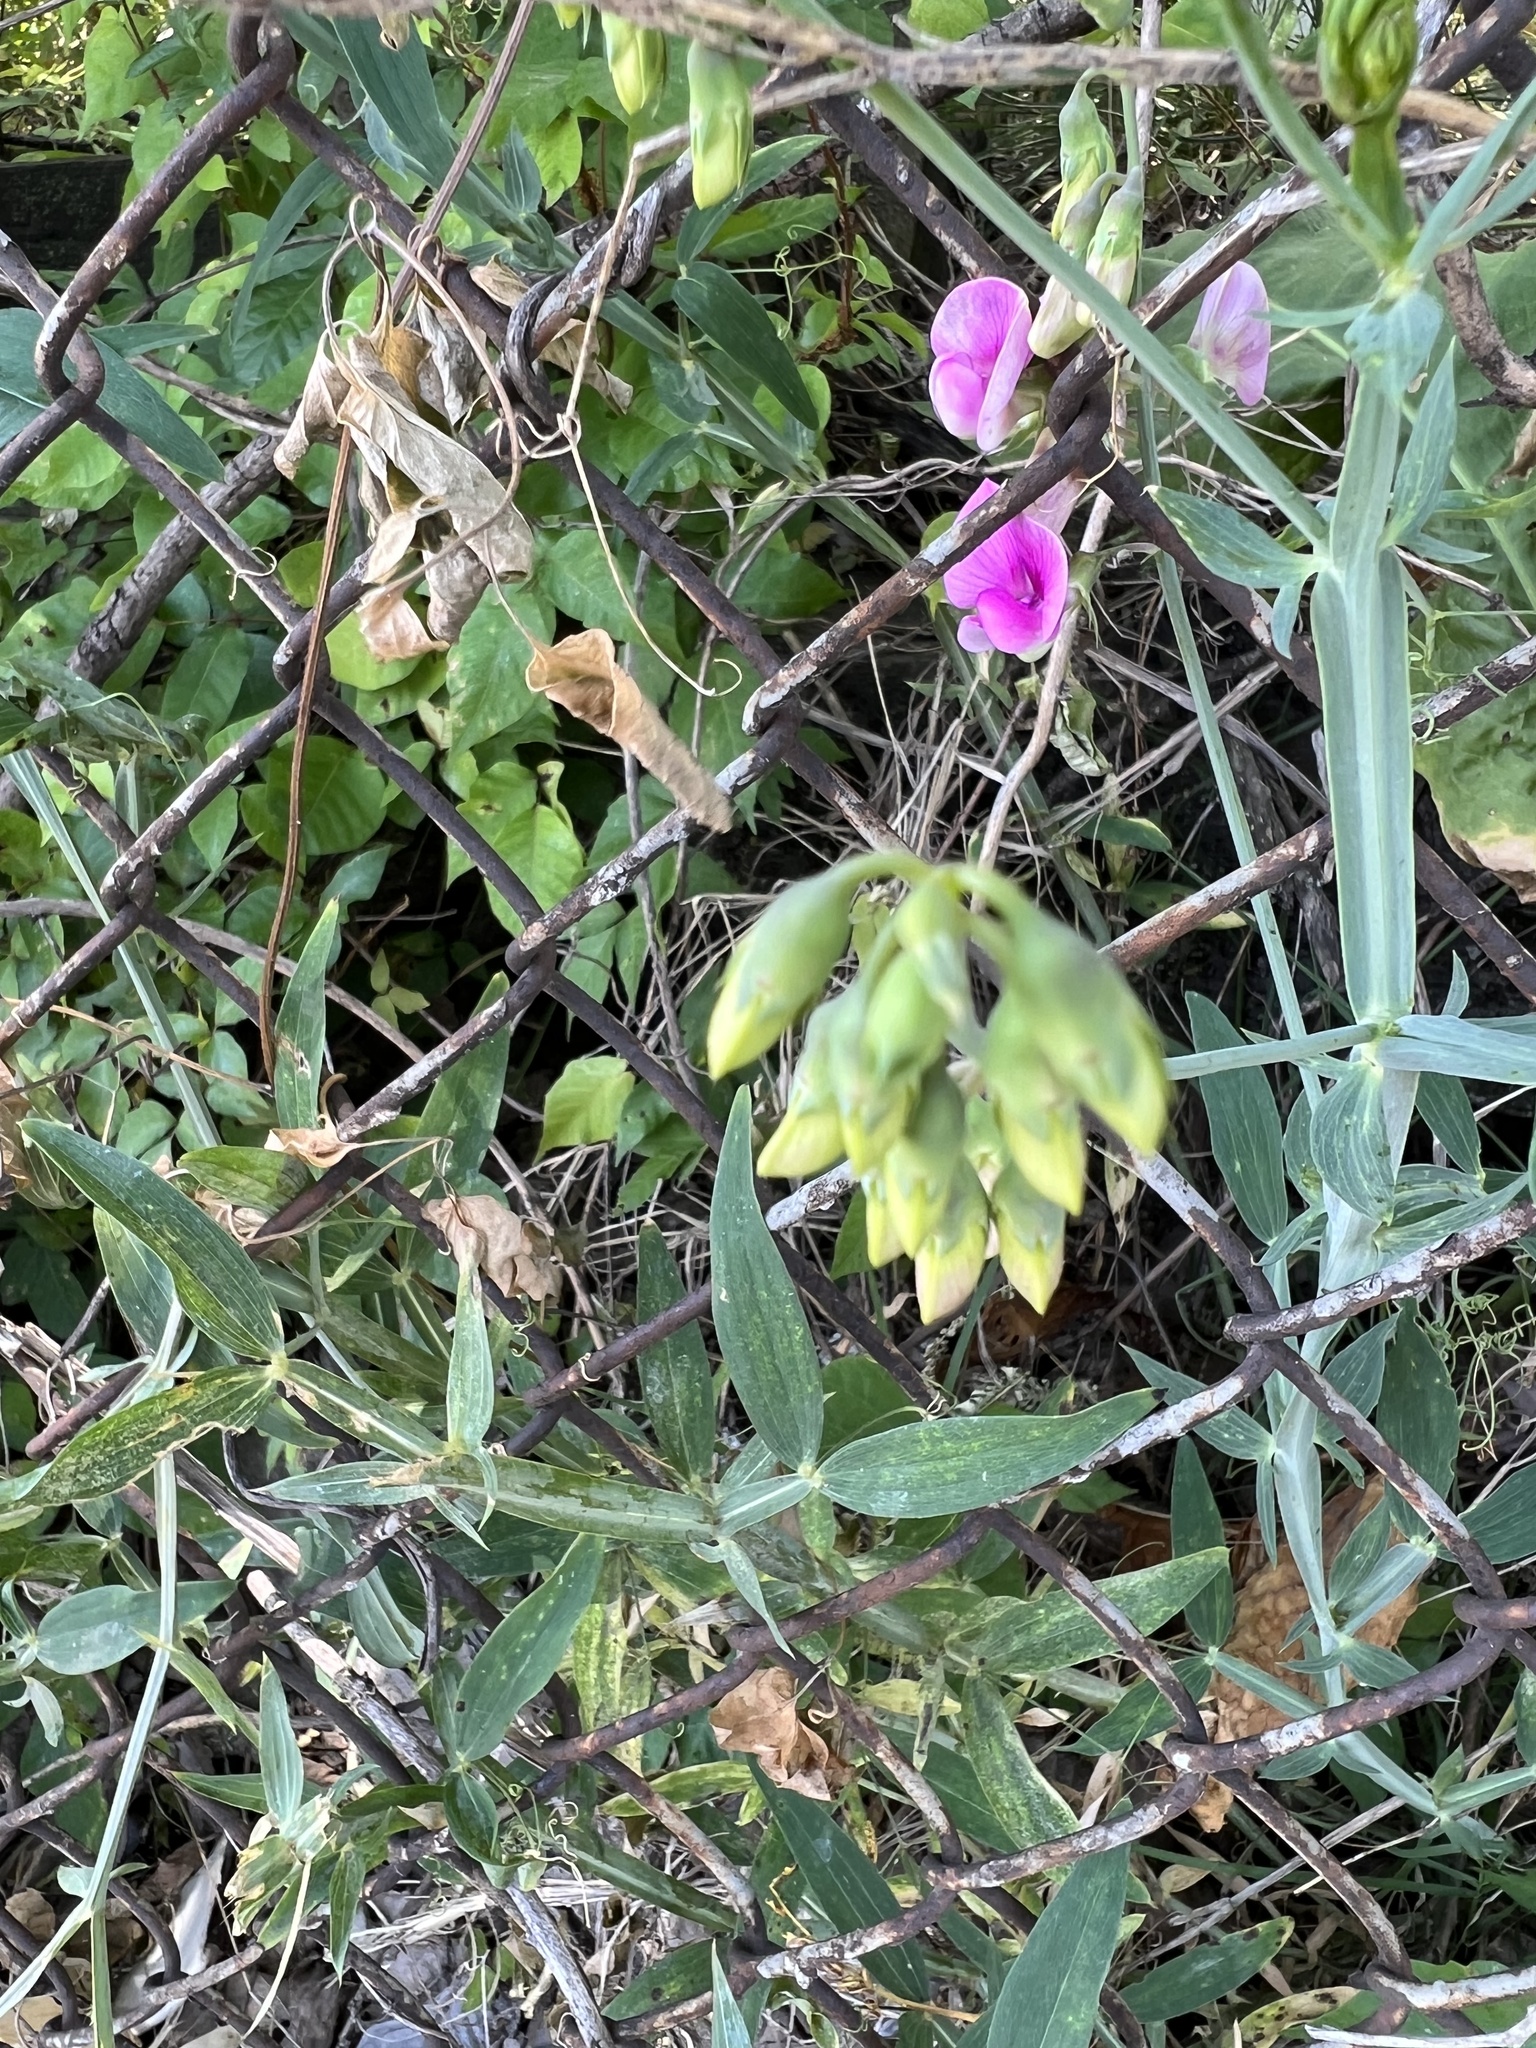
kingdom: Plantae
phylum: Tracheophyta
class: Magnoliopsida
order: Fabales
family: Fabaceae
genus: Lathyrus
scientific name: Lathyrus latifolius
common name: Perennial pea
